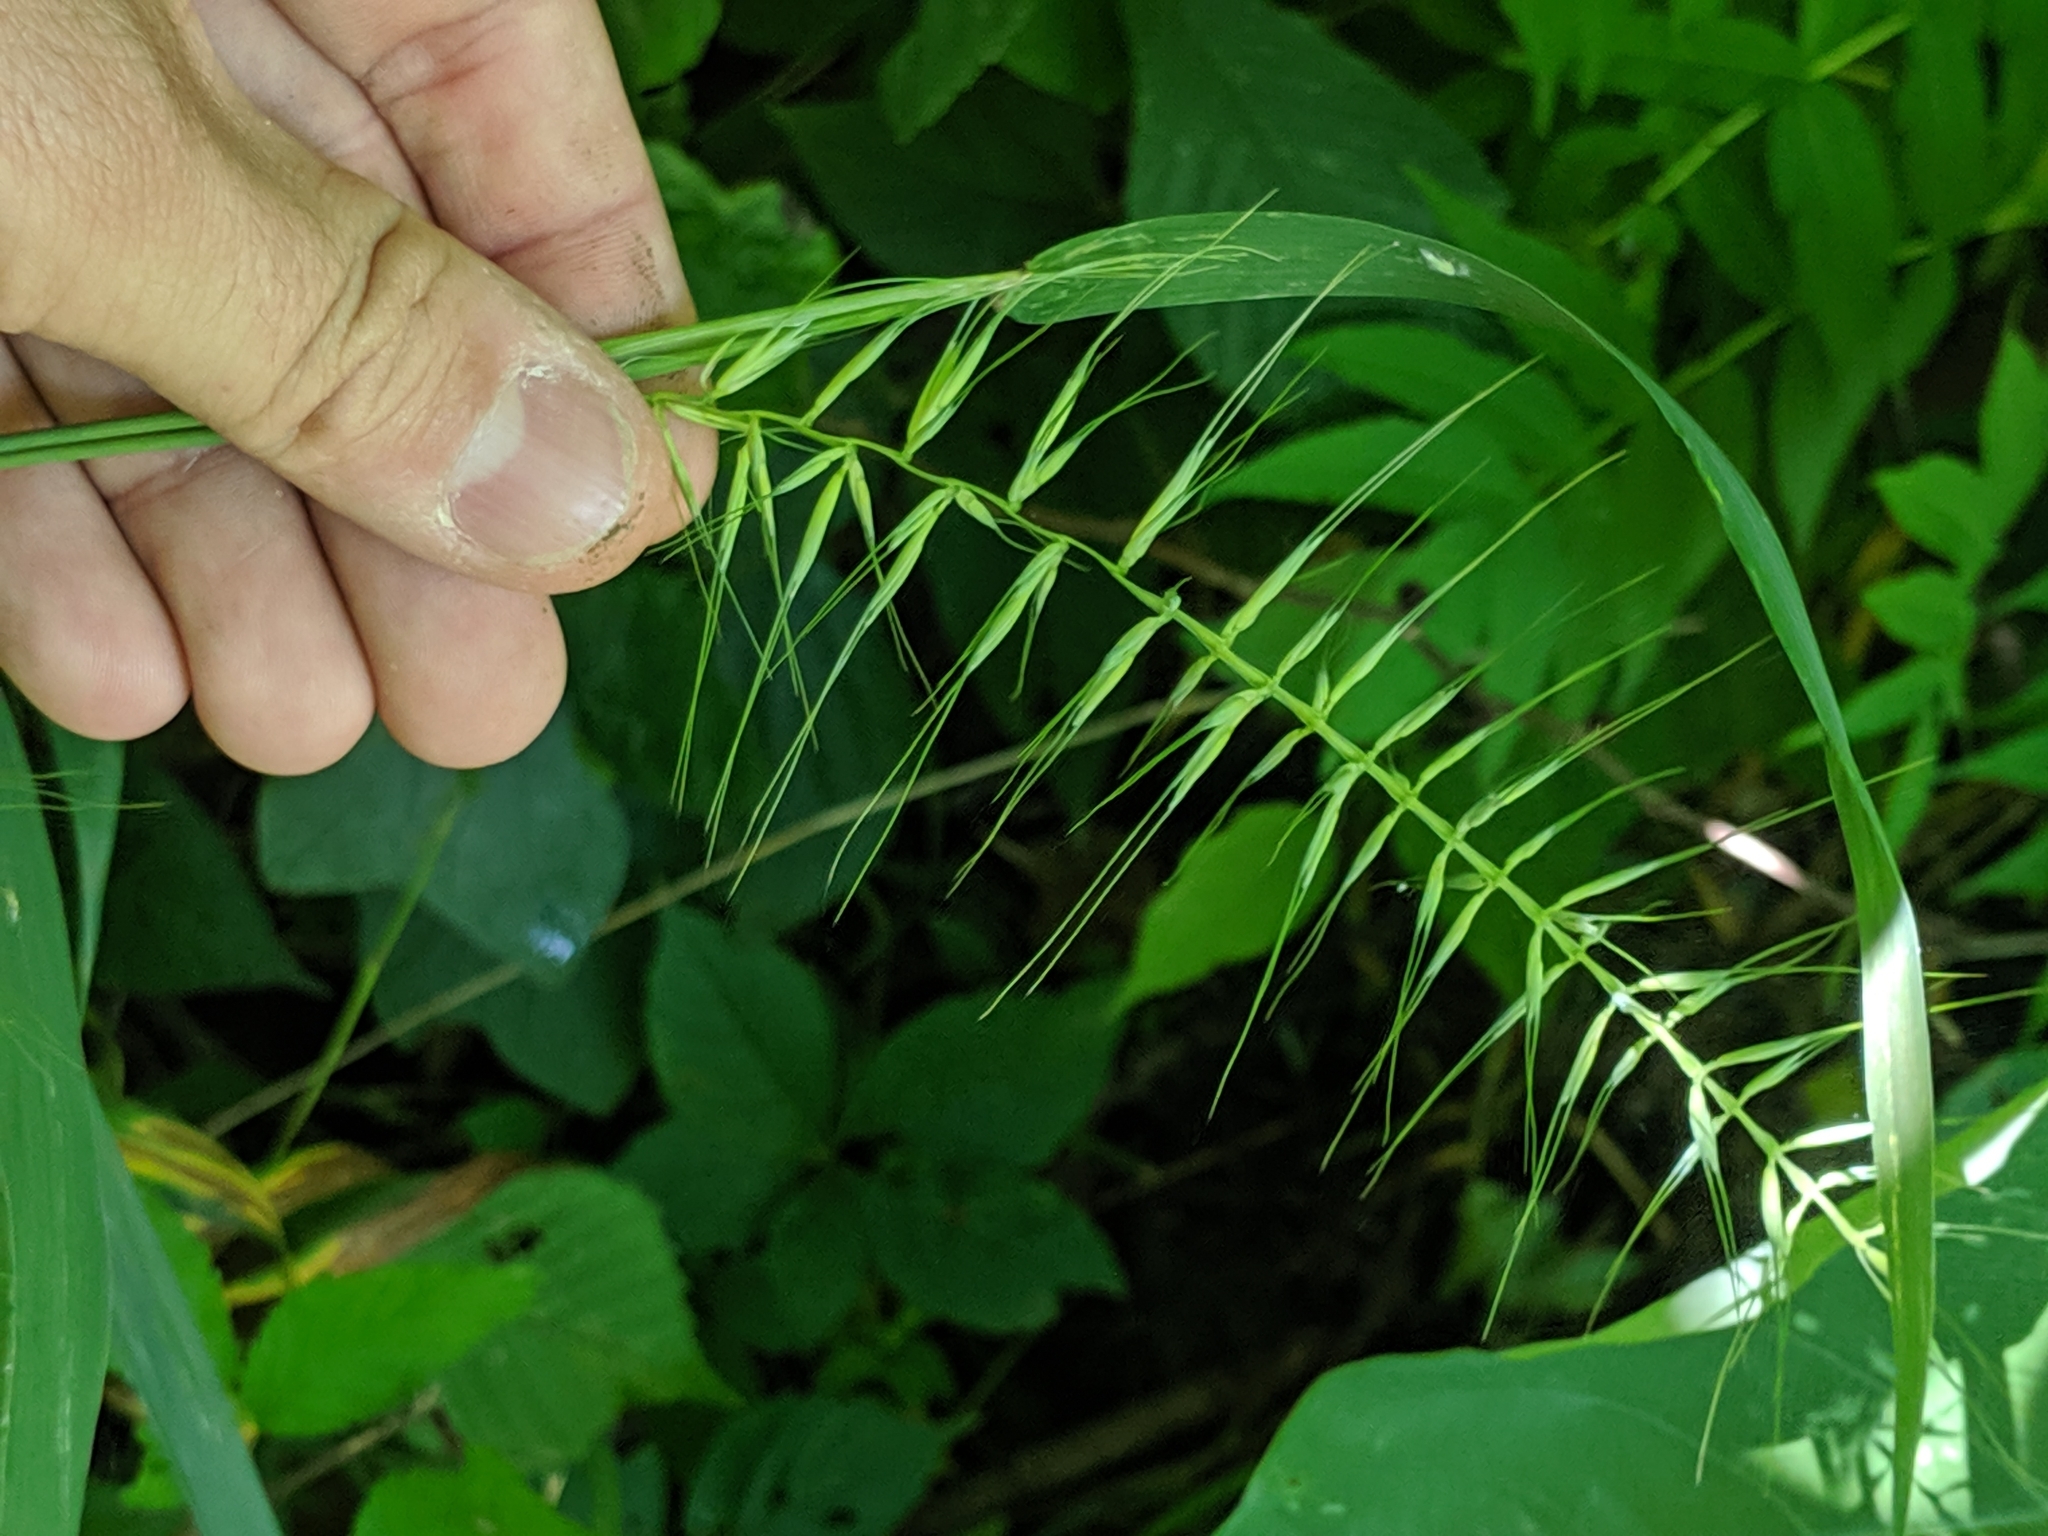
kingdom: Plantae
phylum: Tracheophyta
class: Liliopsida
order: Poales
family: Poaceae
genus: Elymus
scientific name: Elymus hystrix
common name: Bottlebrush grass
